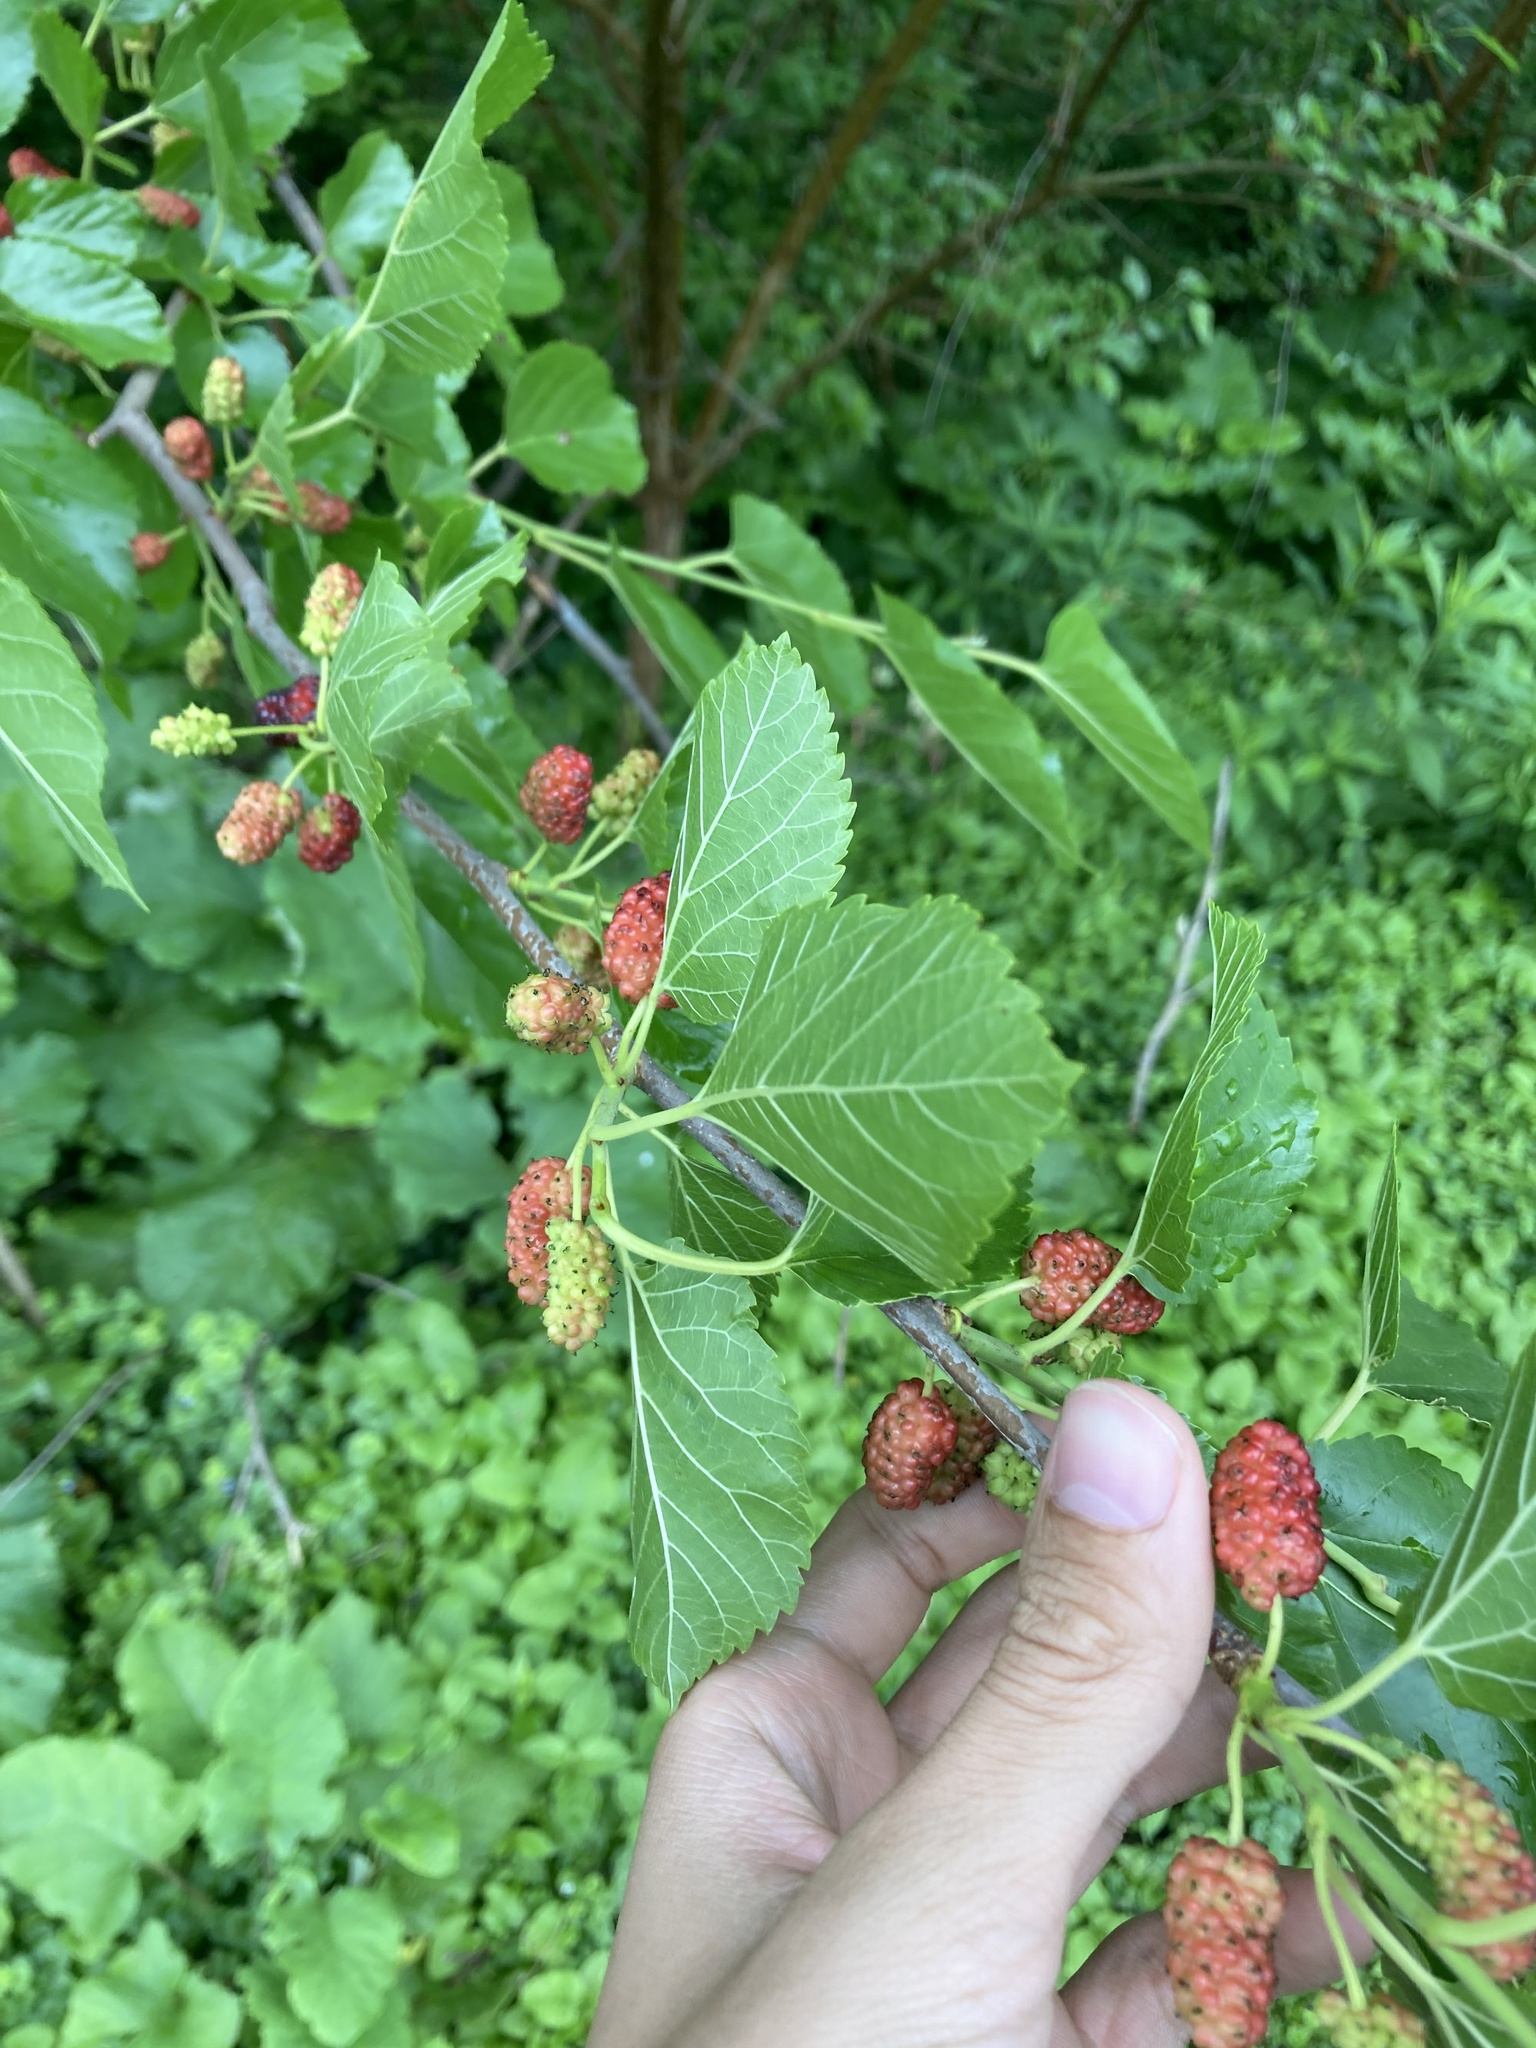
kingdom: Plantae
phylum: Tracheophyta
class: Magnoliopsida
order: Rosales
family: Moraceae
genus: Morus
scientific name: Morus alba
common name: White mulberry
